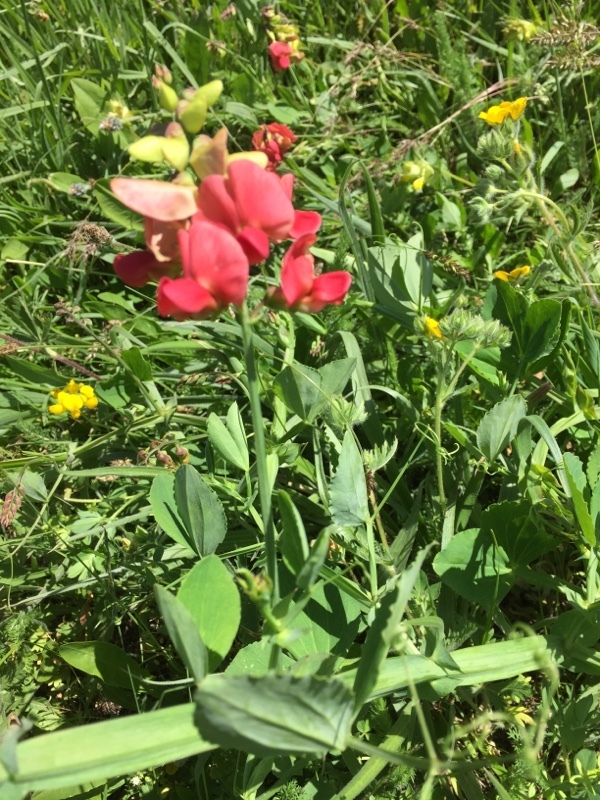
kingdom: Plantae
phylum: Tracheophyta
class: Magnoliopsida
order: Fabales
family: Fabaceae
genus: Lathyrus
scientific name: Lathyrus miniatus
